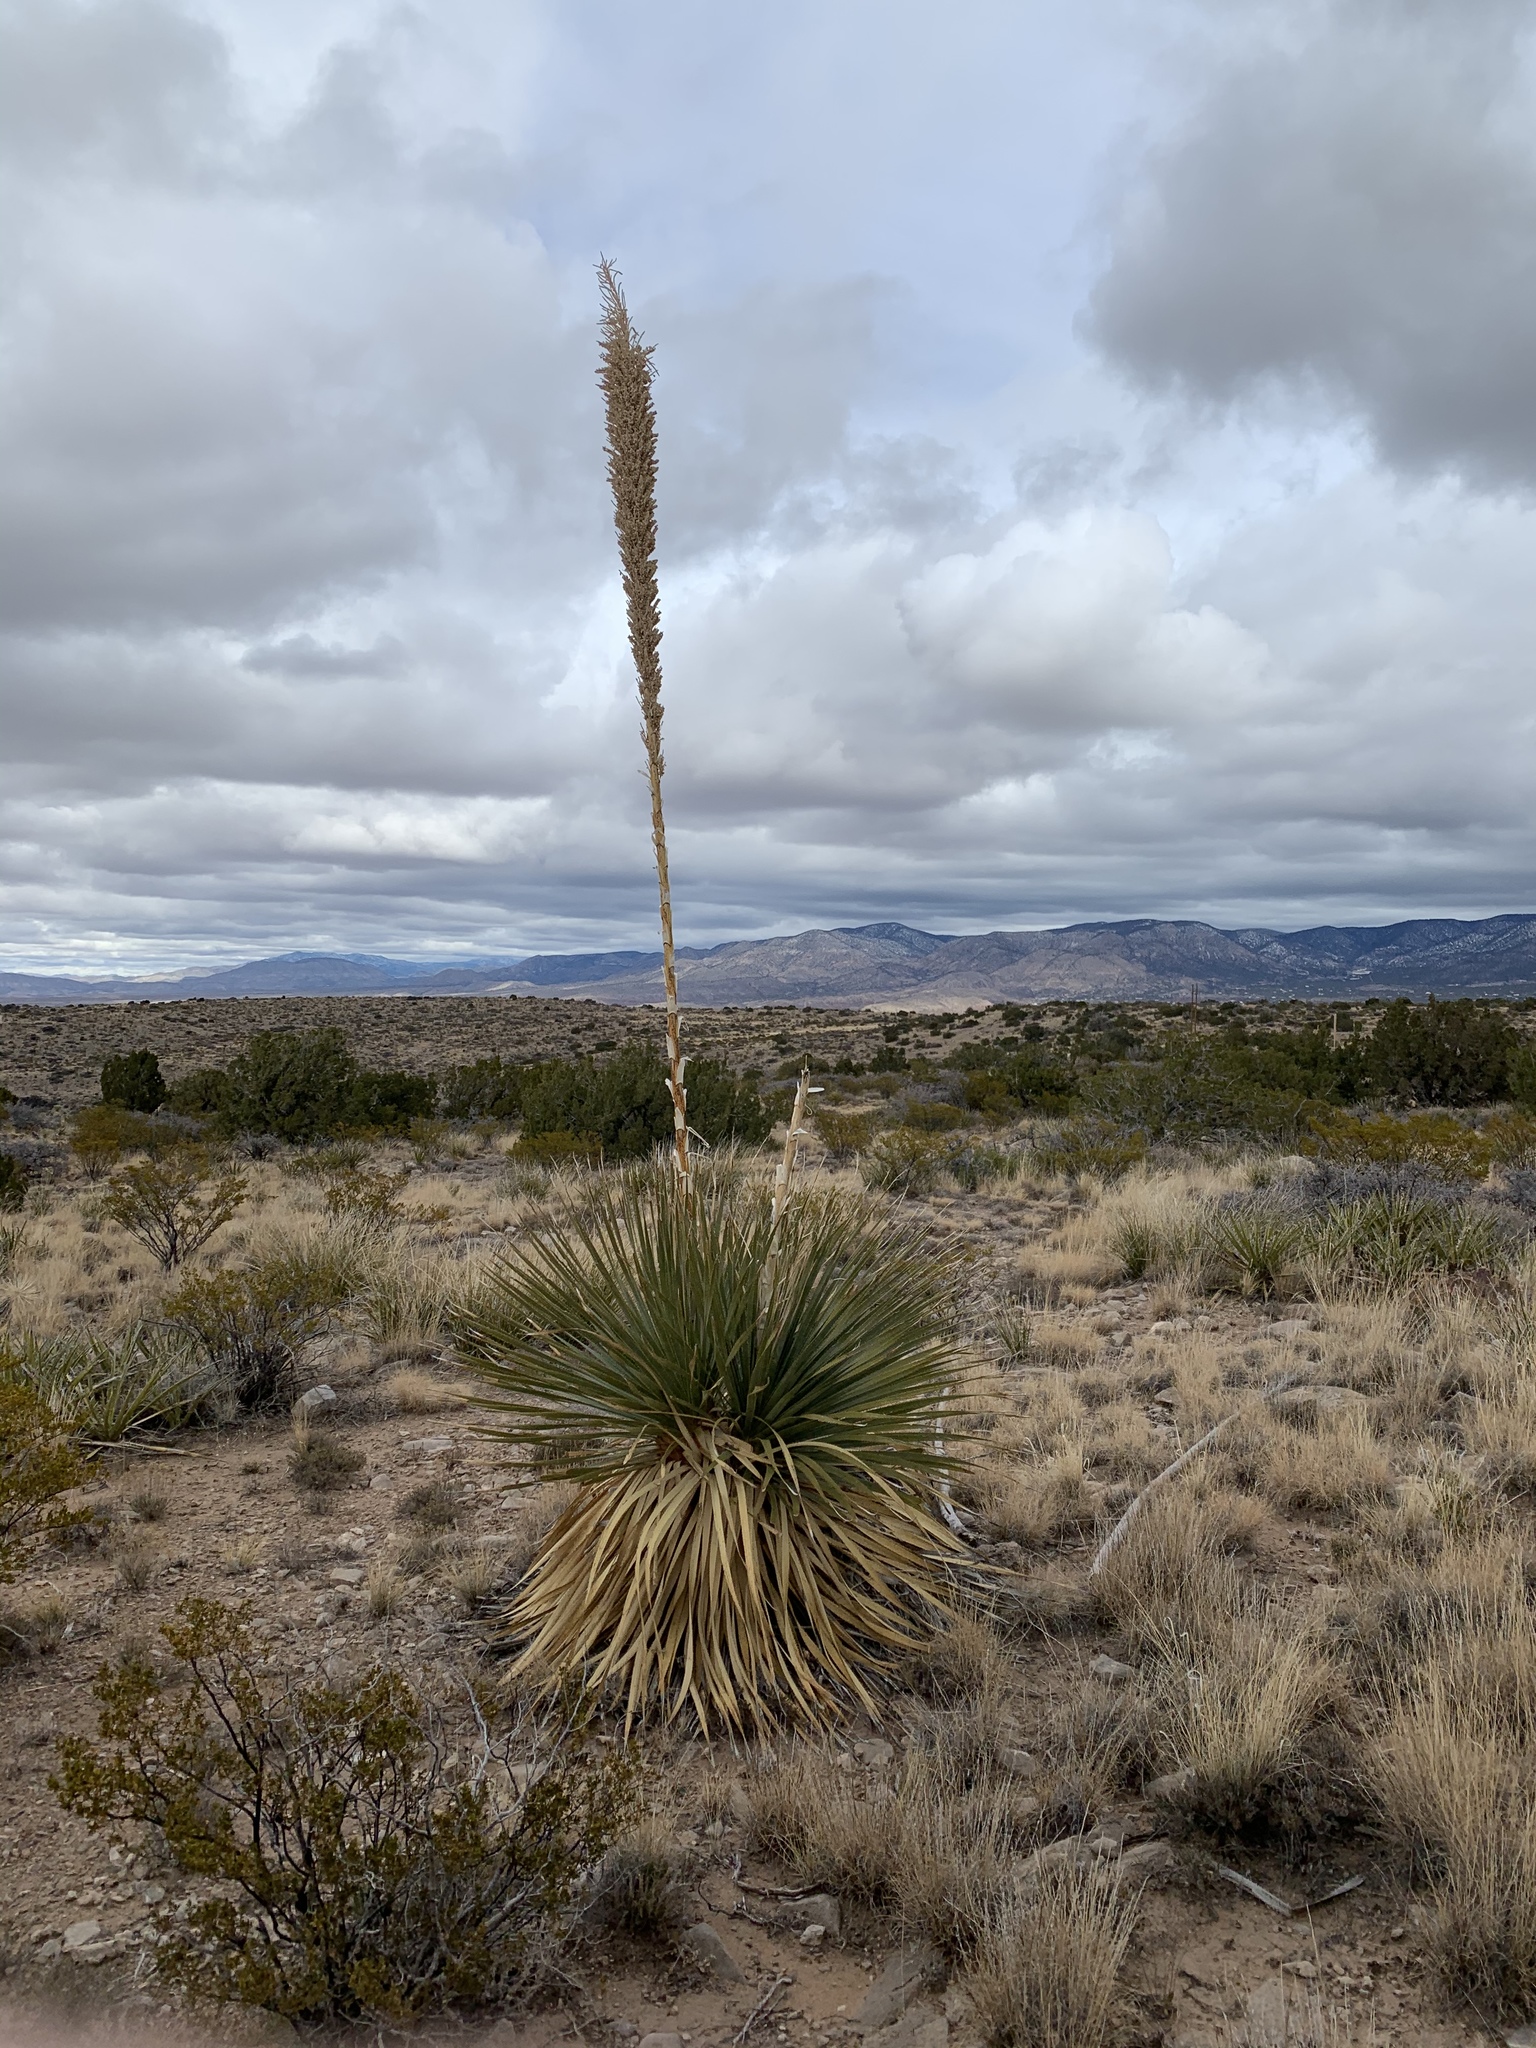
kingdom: Plantae
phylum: Tracheophyta
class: Liliopsida
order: Asparagales
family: Asparagaceae
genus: Dasylirion
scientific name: Dasylirion wheeleri
